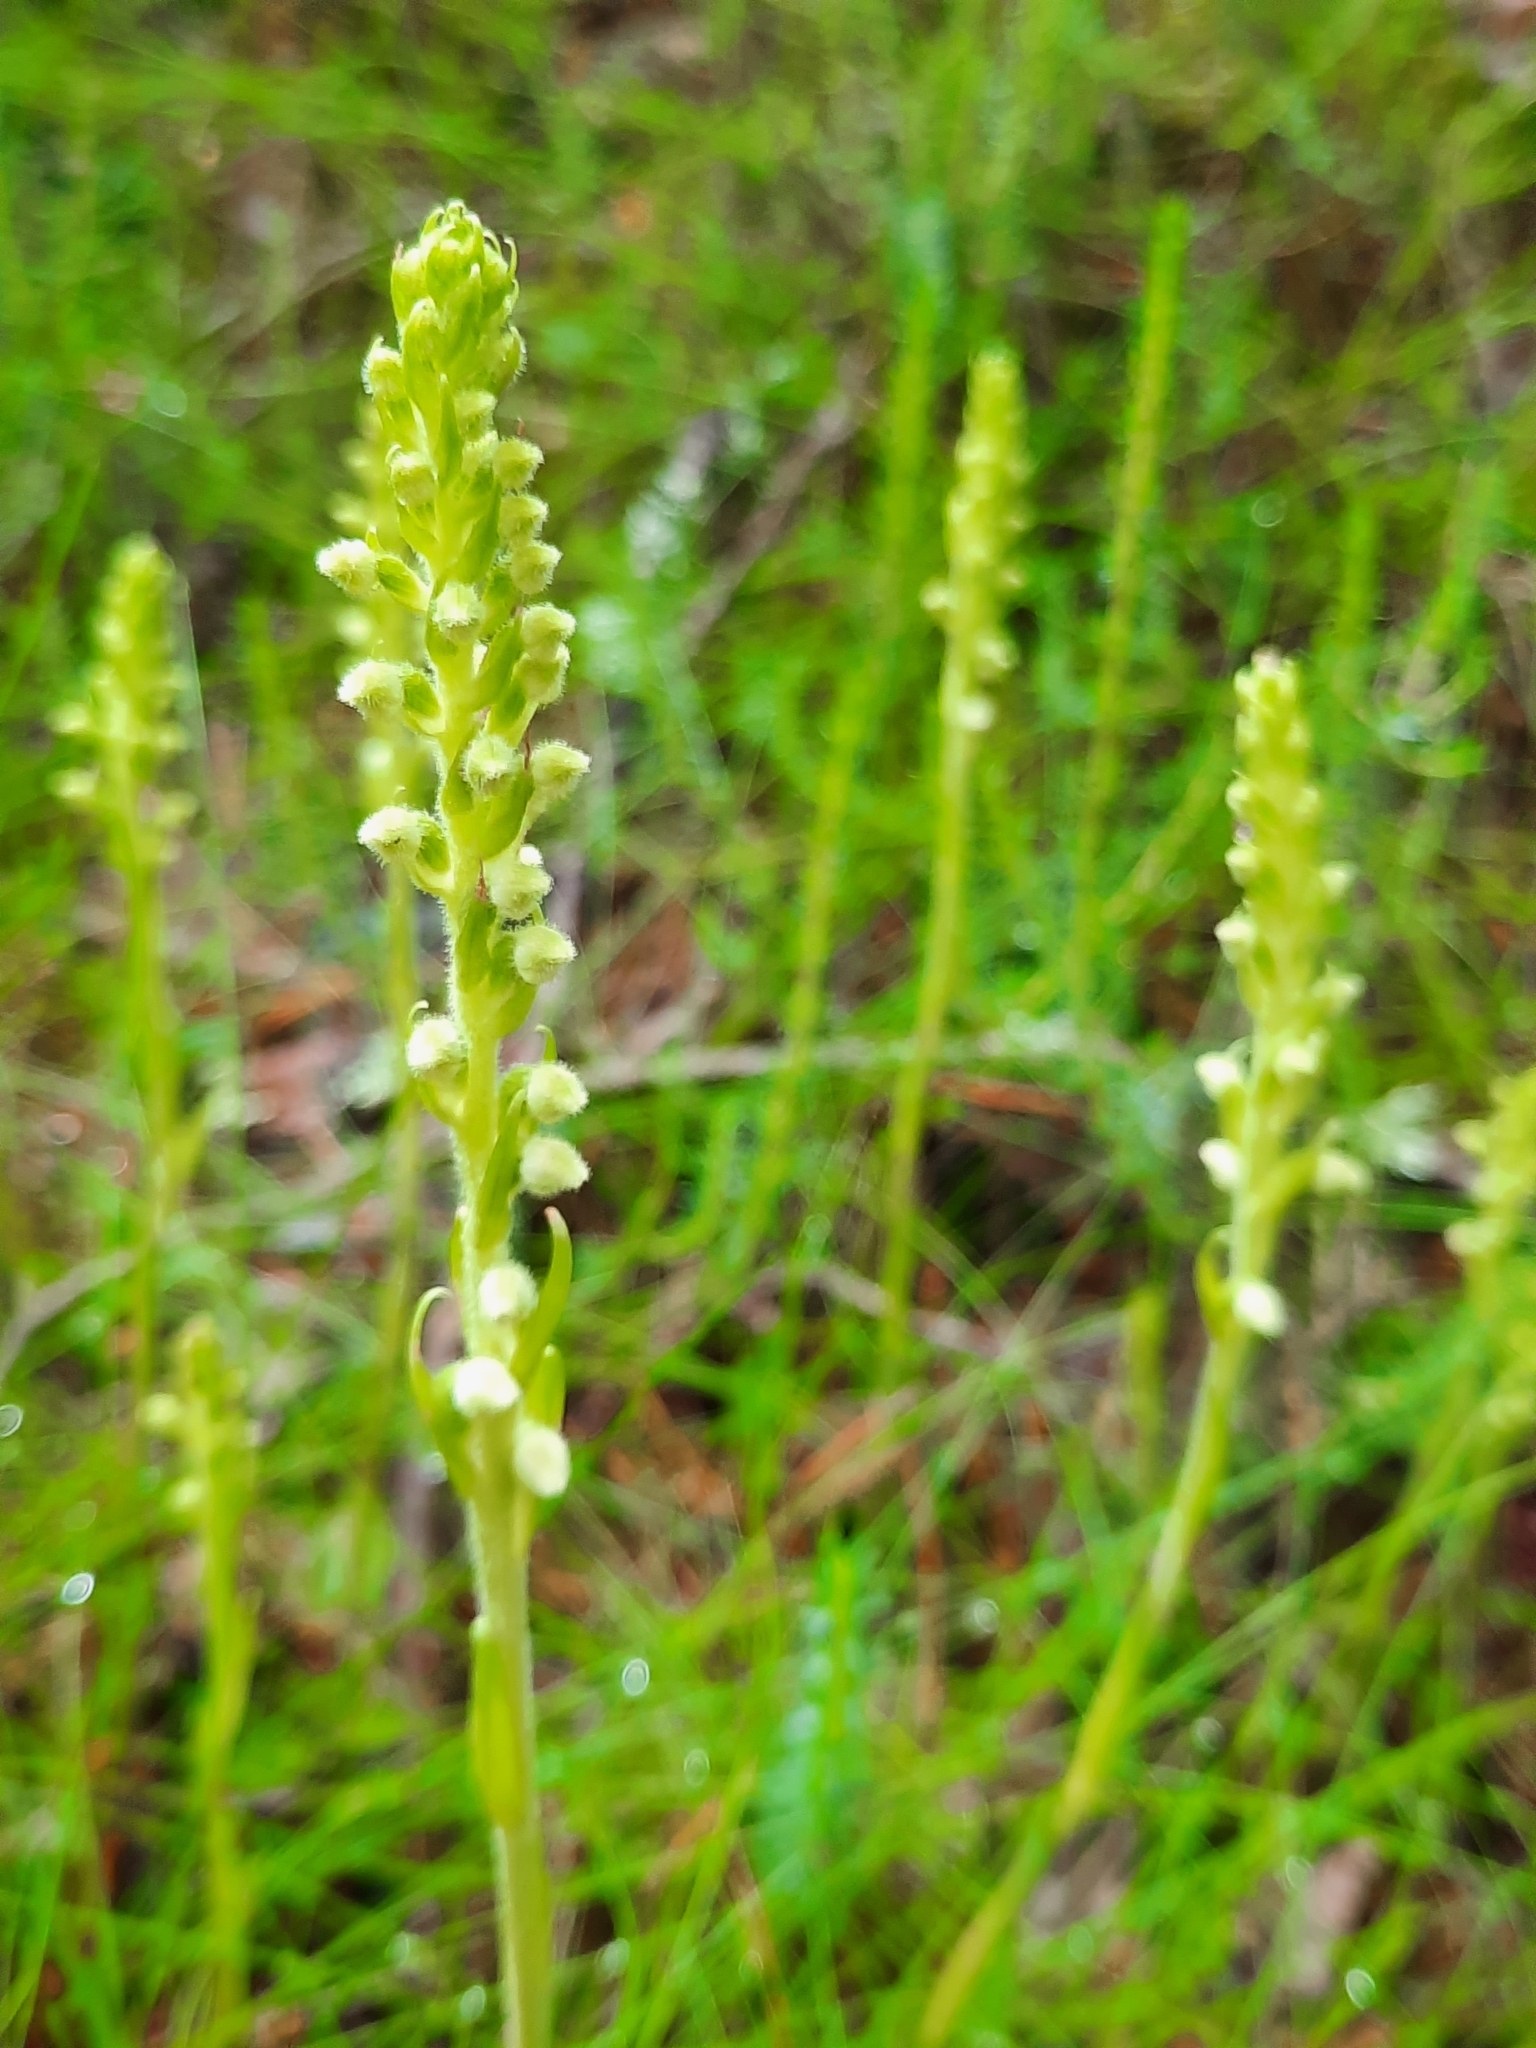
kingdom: Plantae
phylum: Tracheophyta
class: Liliopsida
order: Asparagales
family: Orchidaceae
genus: Goodyera
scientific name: Goodyera repens
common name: Creeping lady's-tresses
